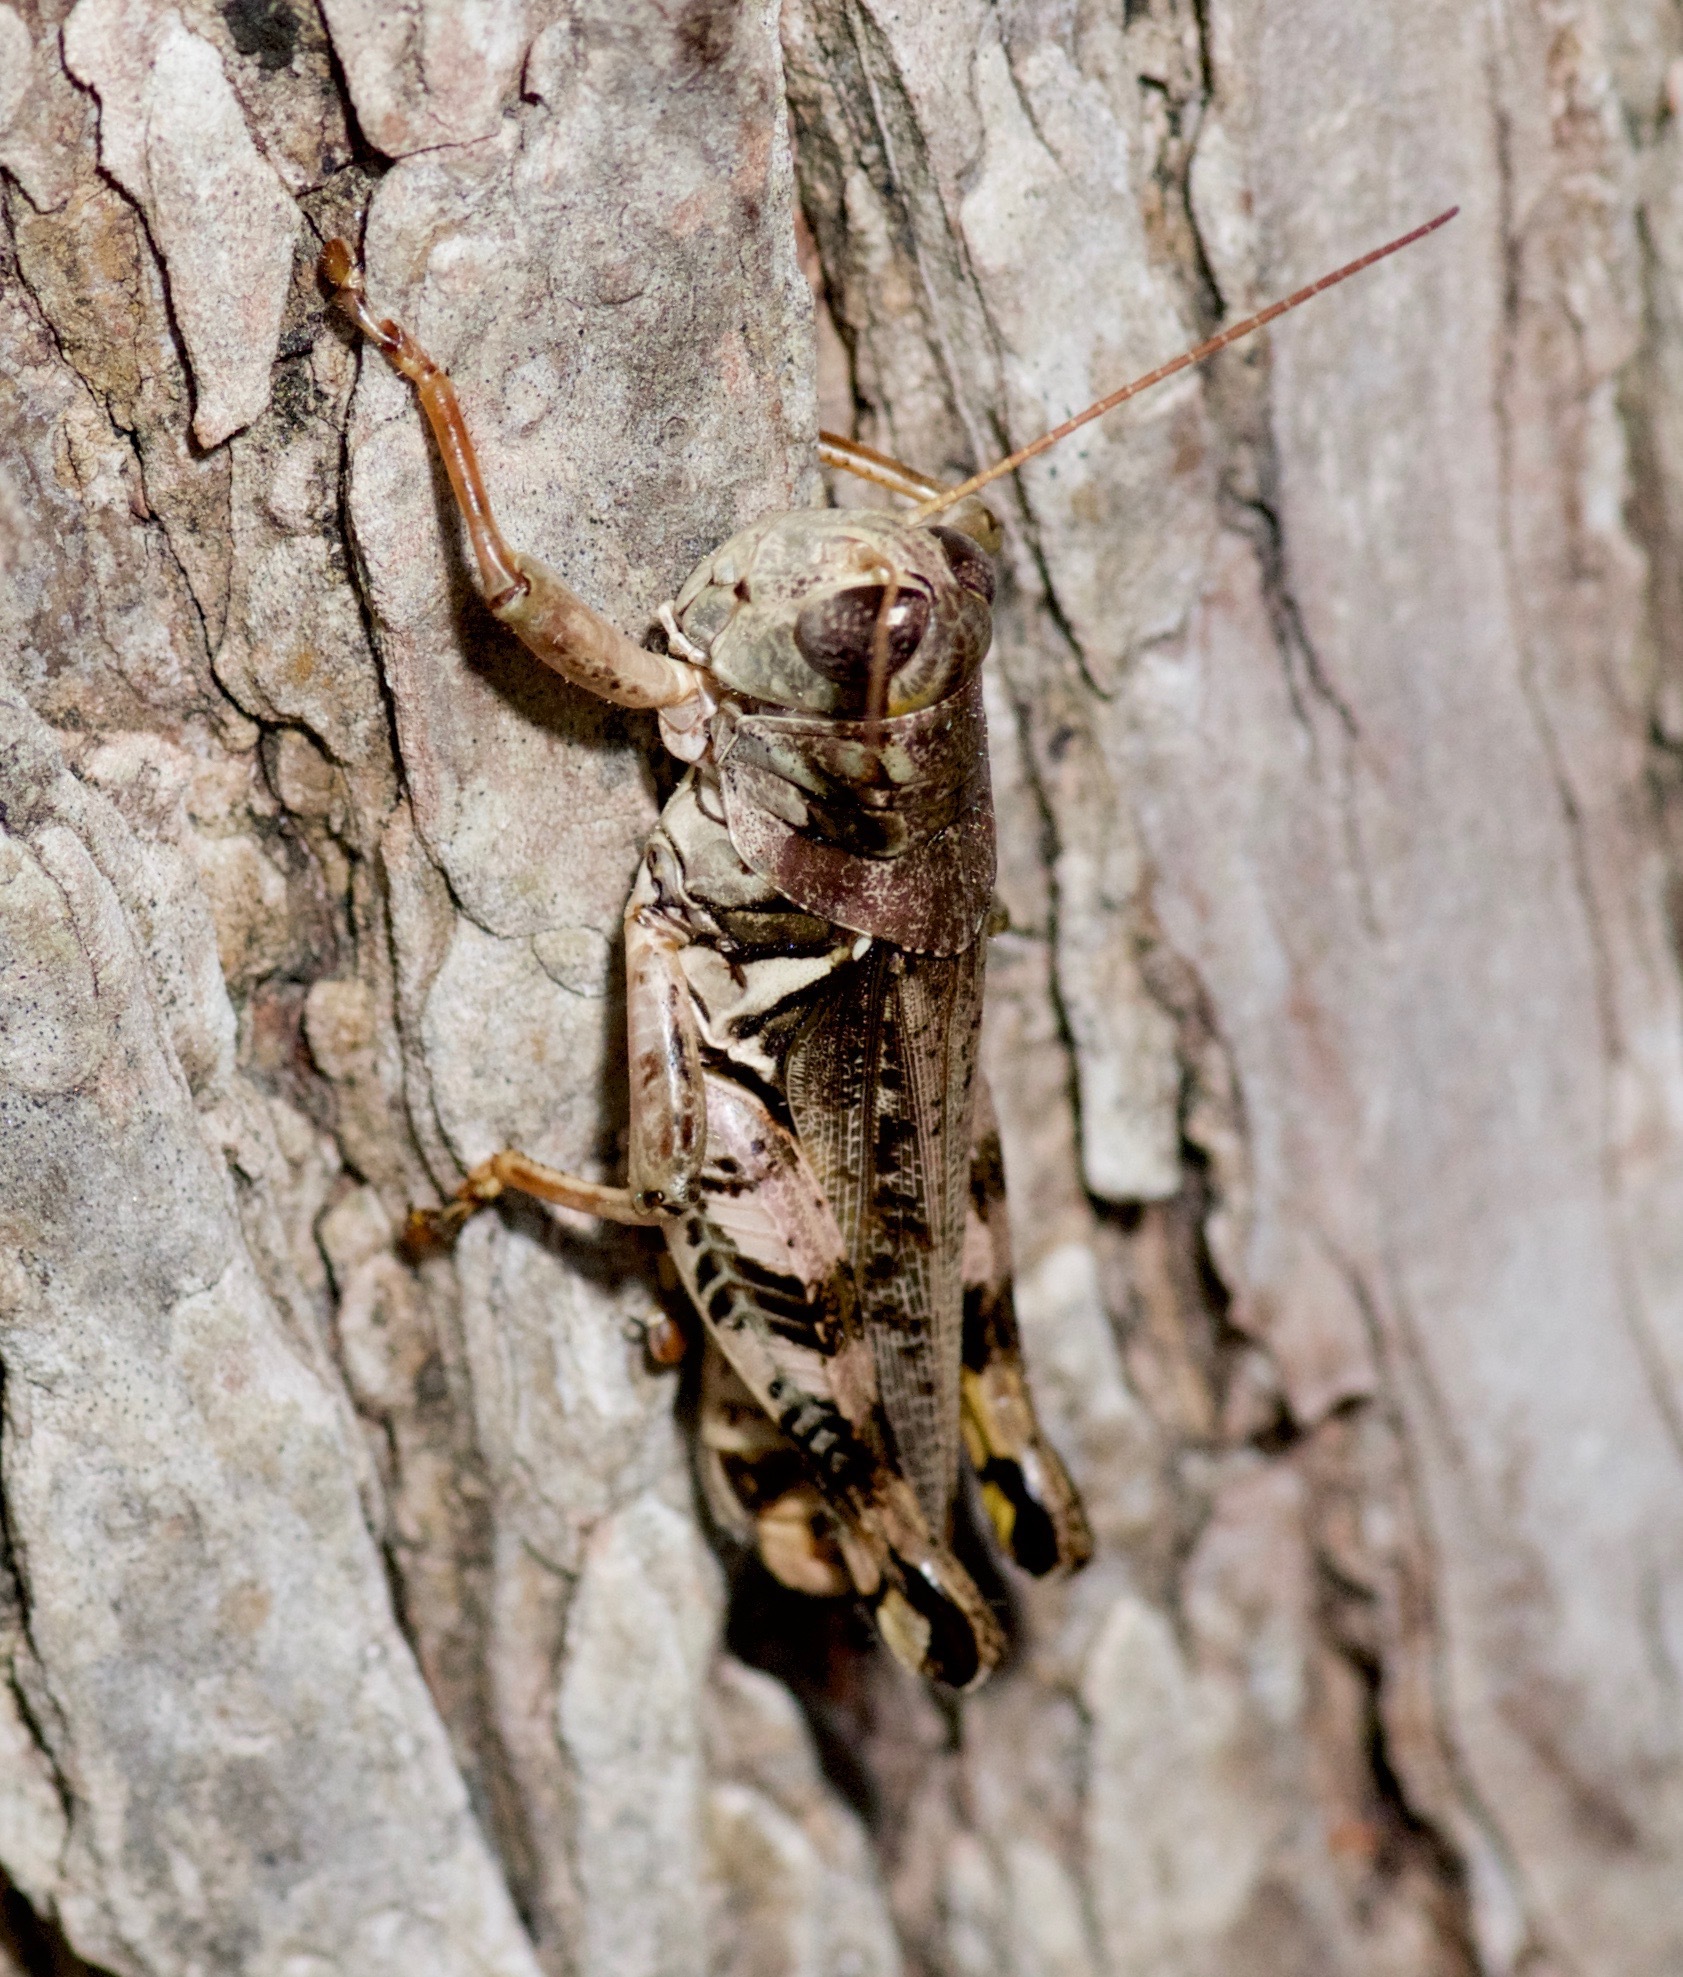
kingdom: Animalia
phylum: Arthropoda
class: Insecta
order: Orthoptera
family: Acrididae
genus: Melanoplus
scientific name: Melanoplus ponderosus
